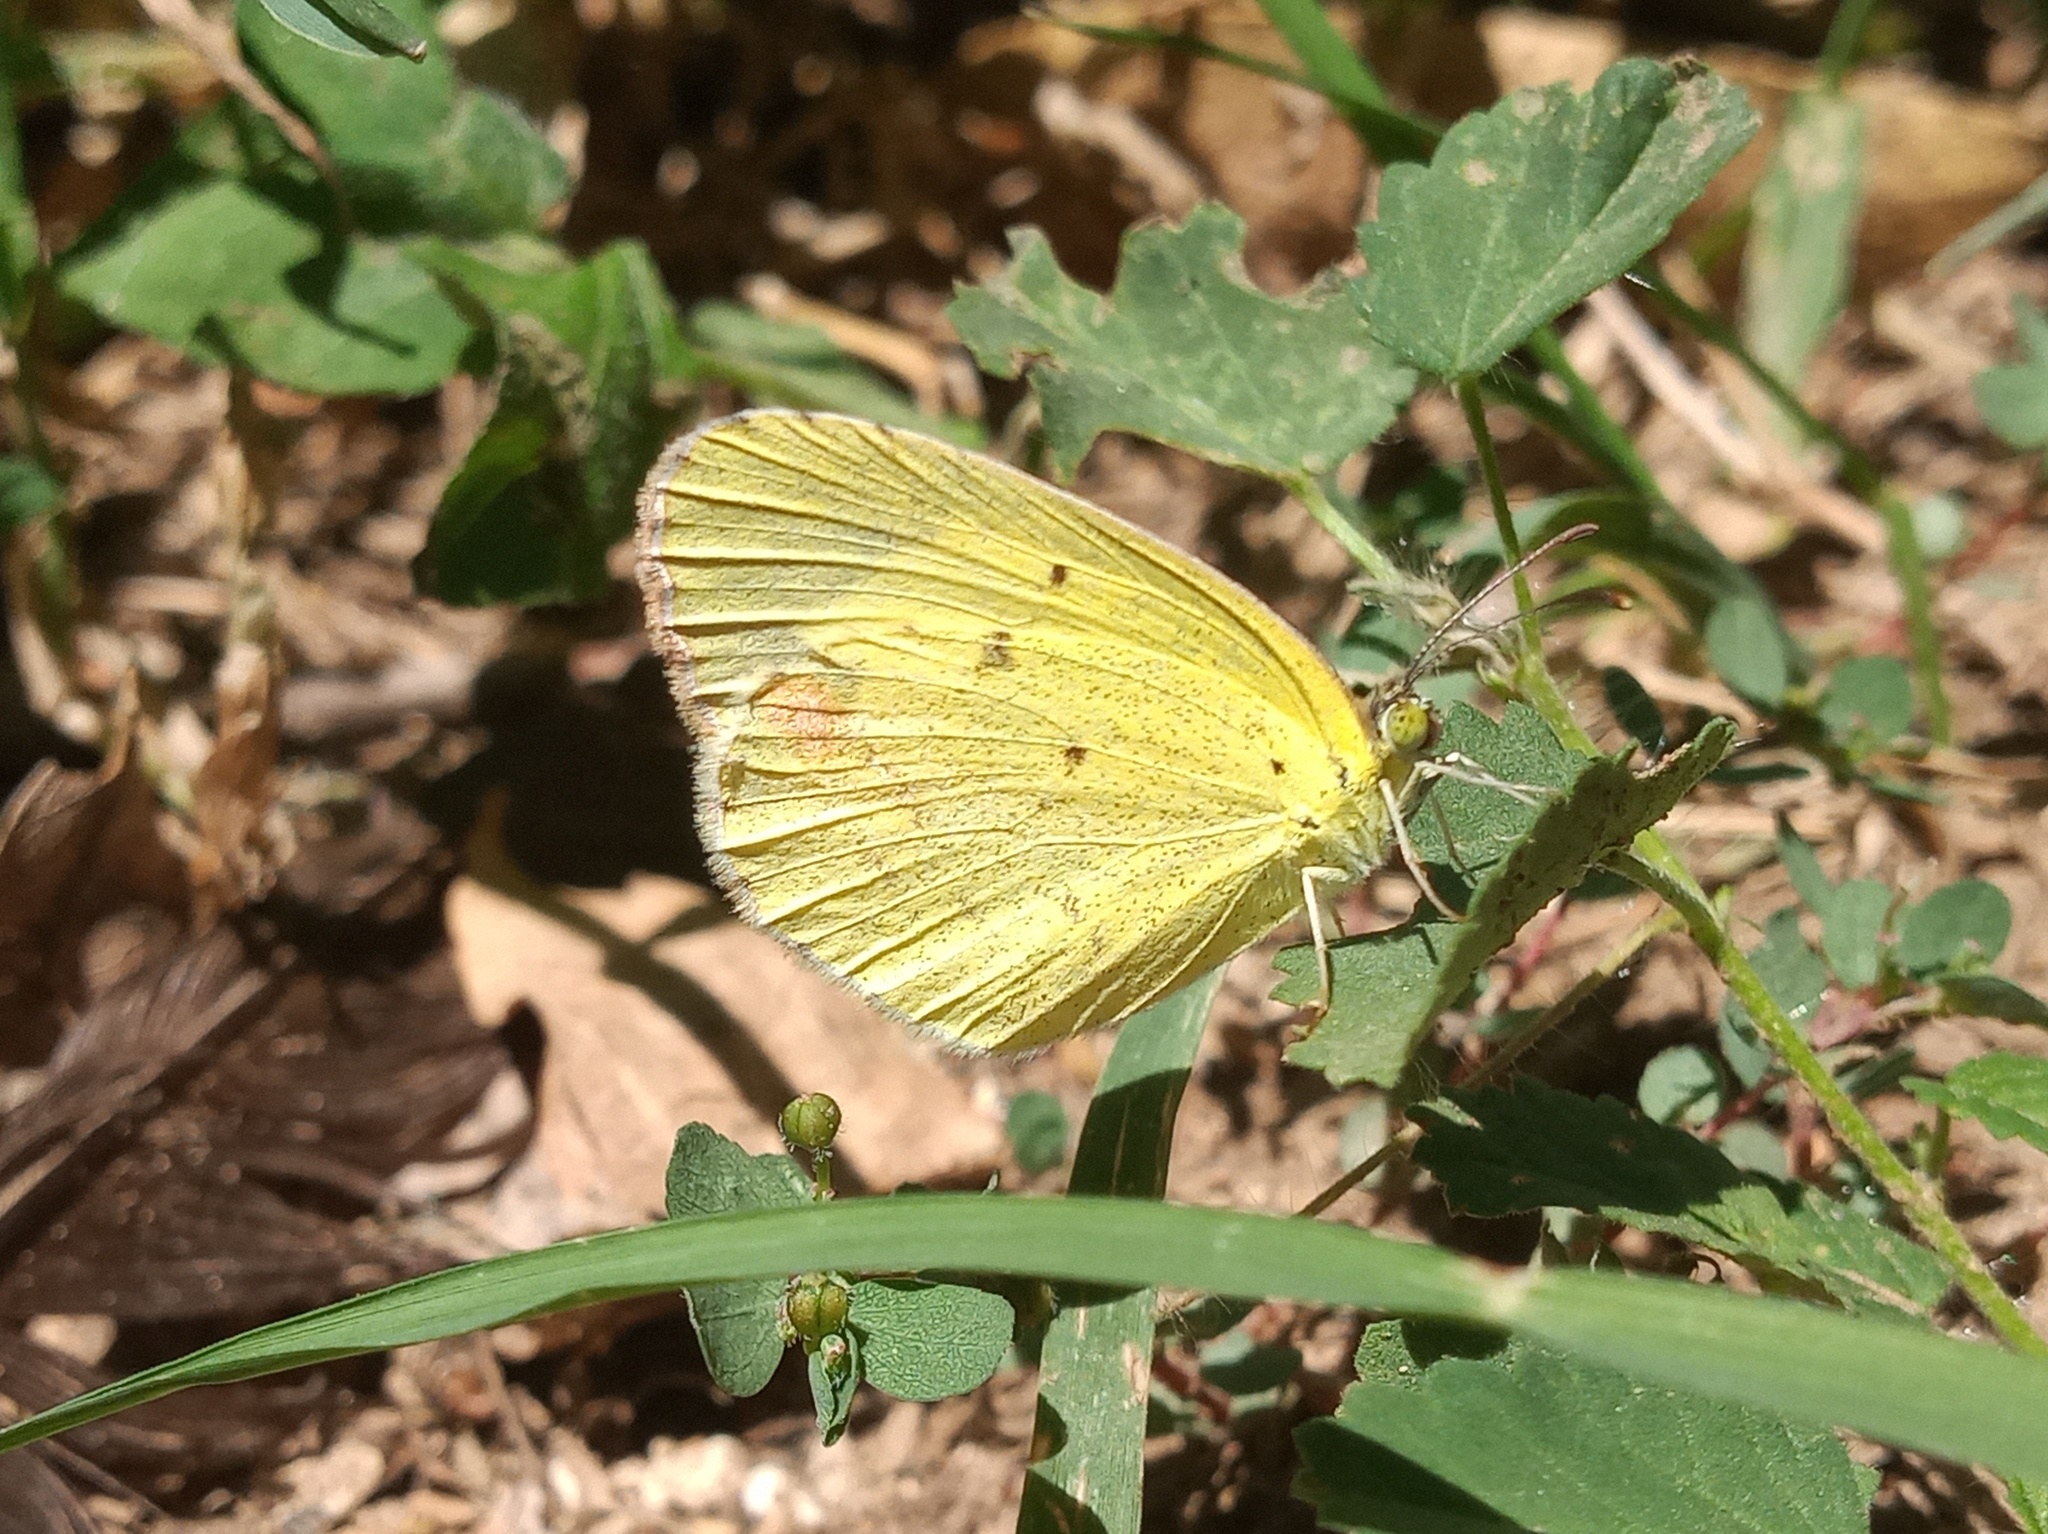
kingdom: Animalia
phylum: Arthropoda
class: Insecta
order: Lepidoptera
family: Pieridae
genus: Pyrisitia
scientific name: Pyrisitia lisa
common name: Little yellow
